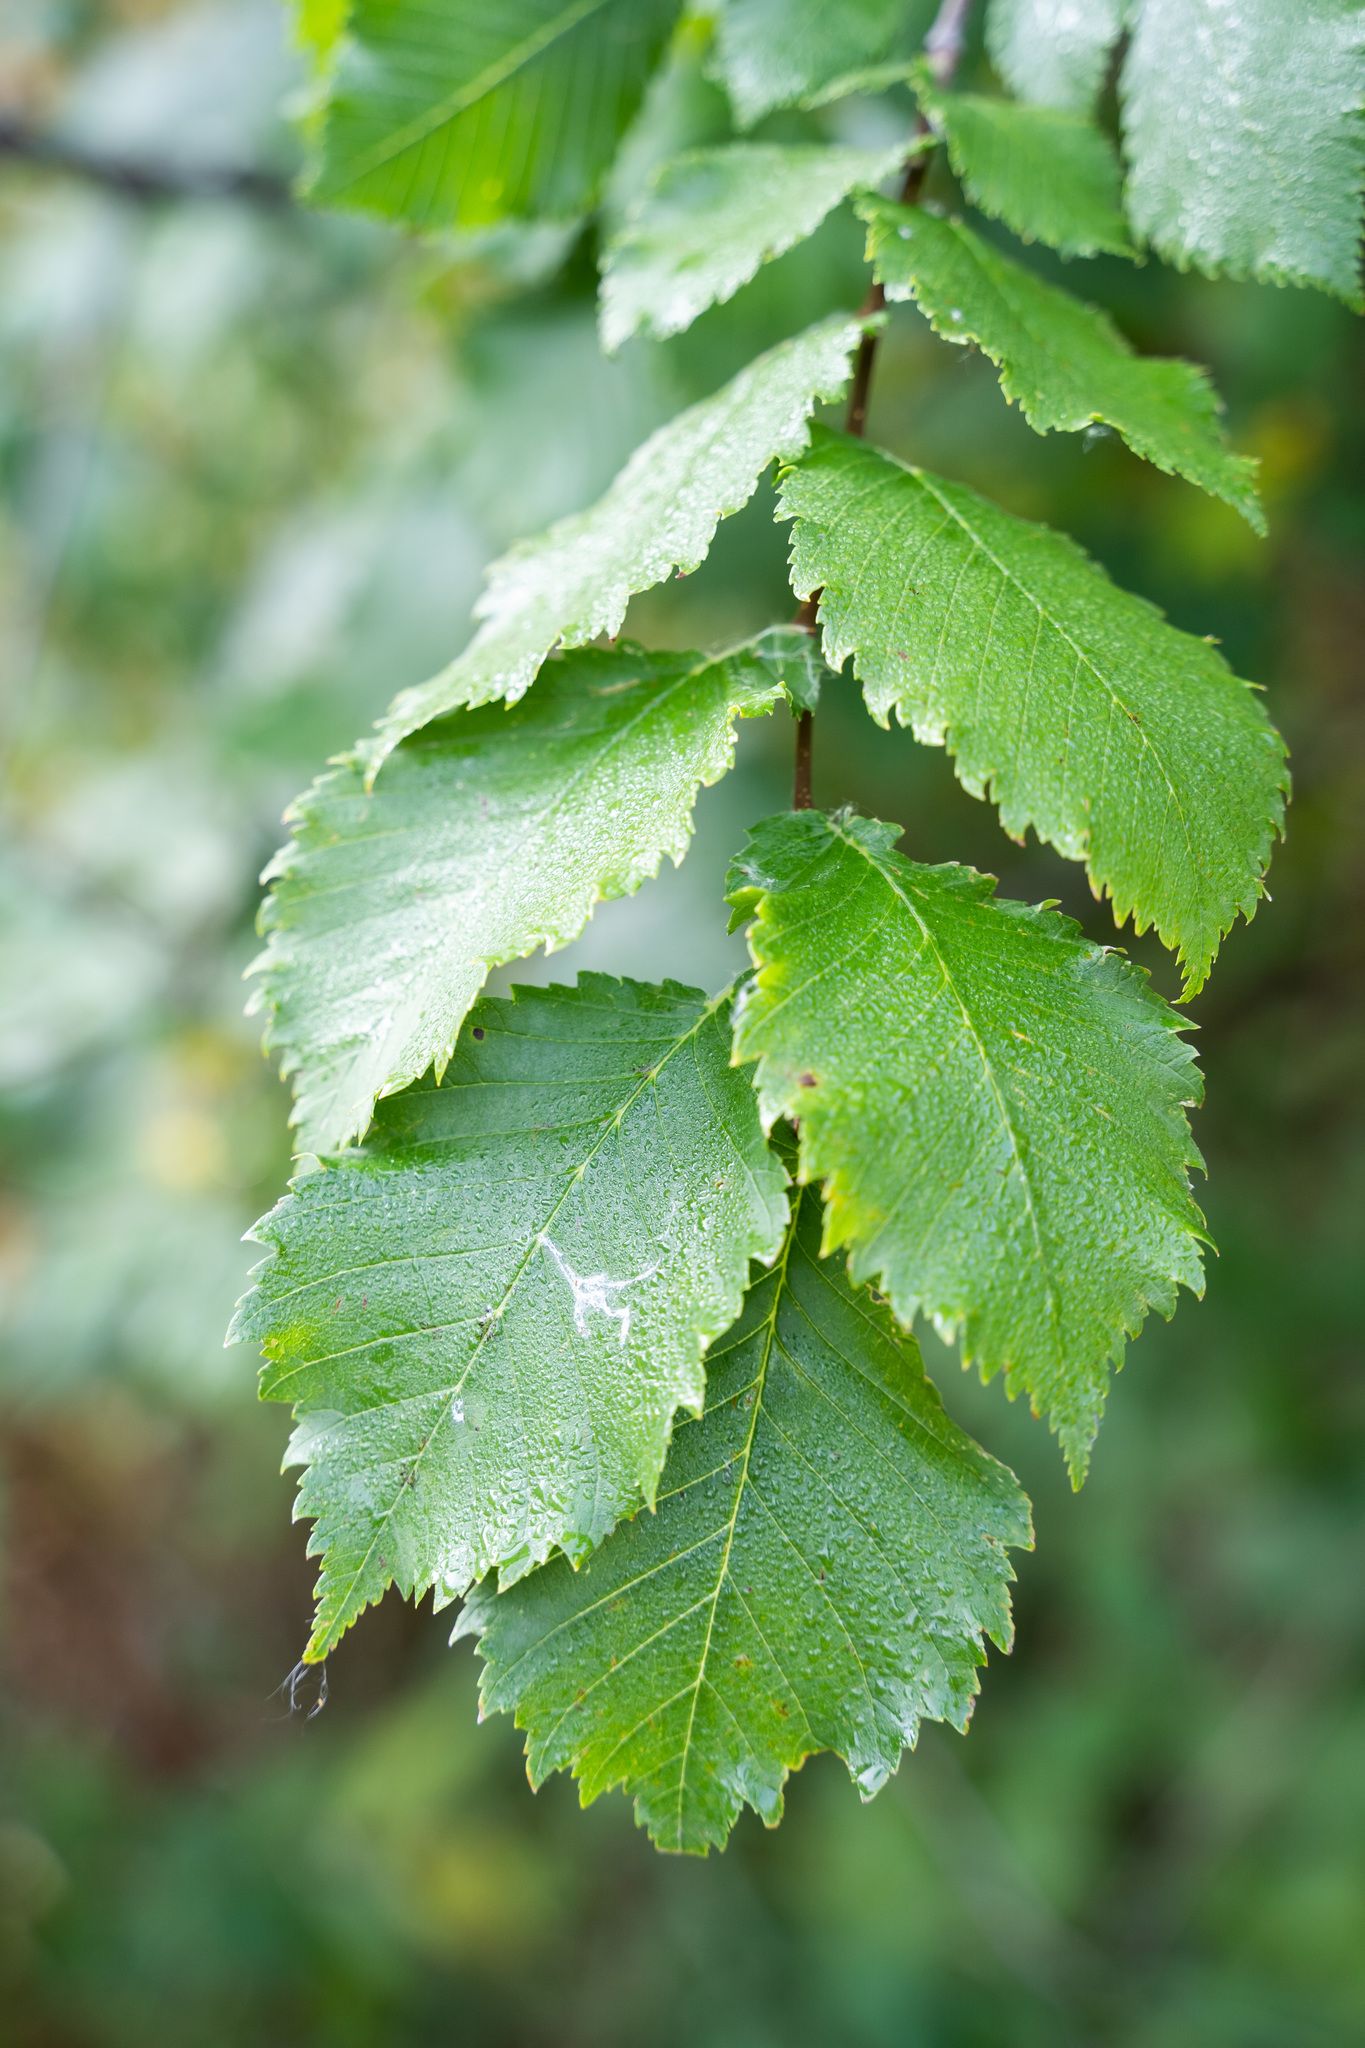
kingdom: Plantae
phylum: Tracheophyta
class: Magnoliopsida
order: Rosales
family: Ulmaceae
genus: Ulmus
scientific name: Ulmus laevis
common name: European white-elm
